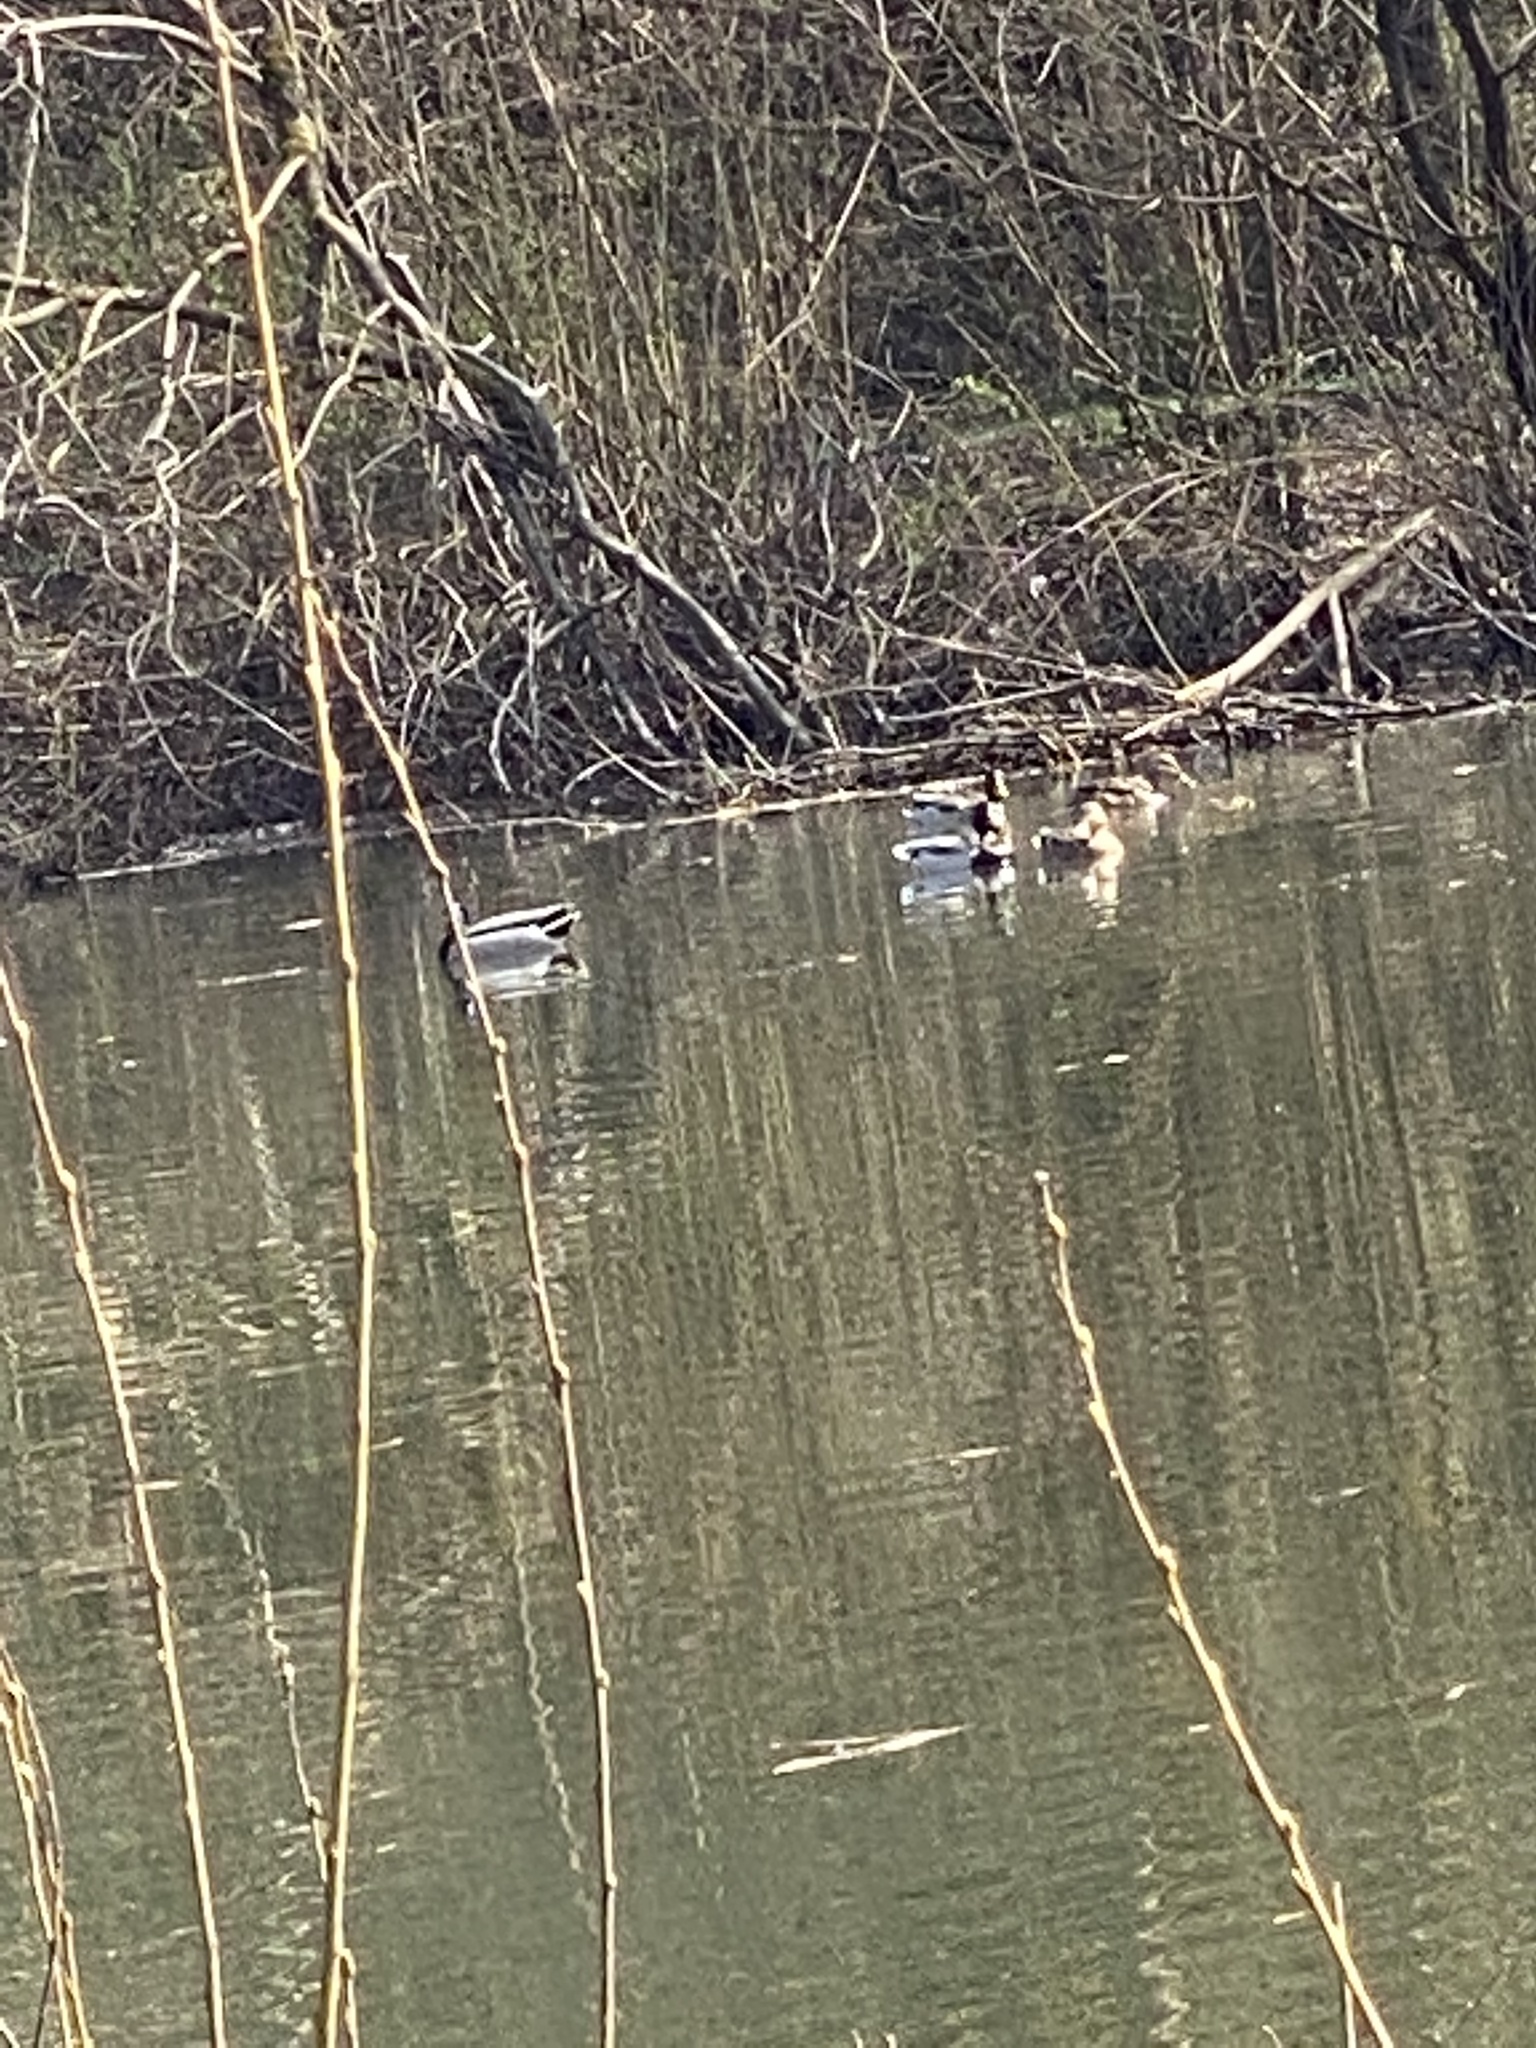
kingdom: Animalia
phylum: Chordata
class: Aves
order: Anseriformes
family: Anatidae
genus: Anas
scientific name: Anas platyrhynchos
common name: Mallard
